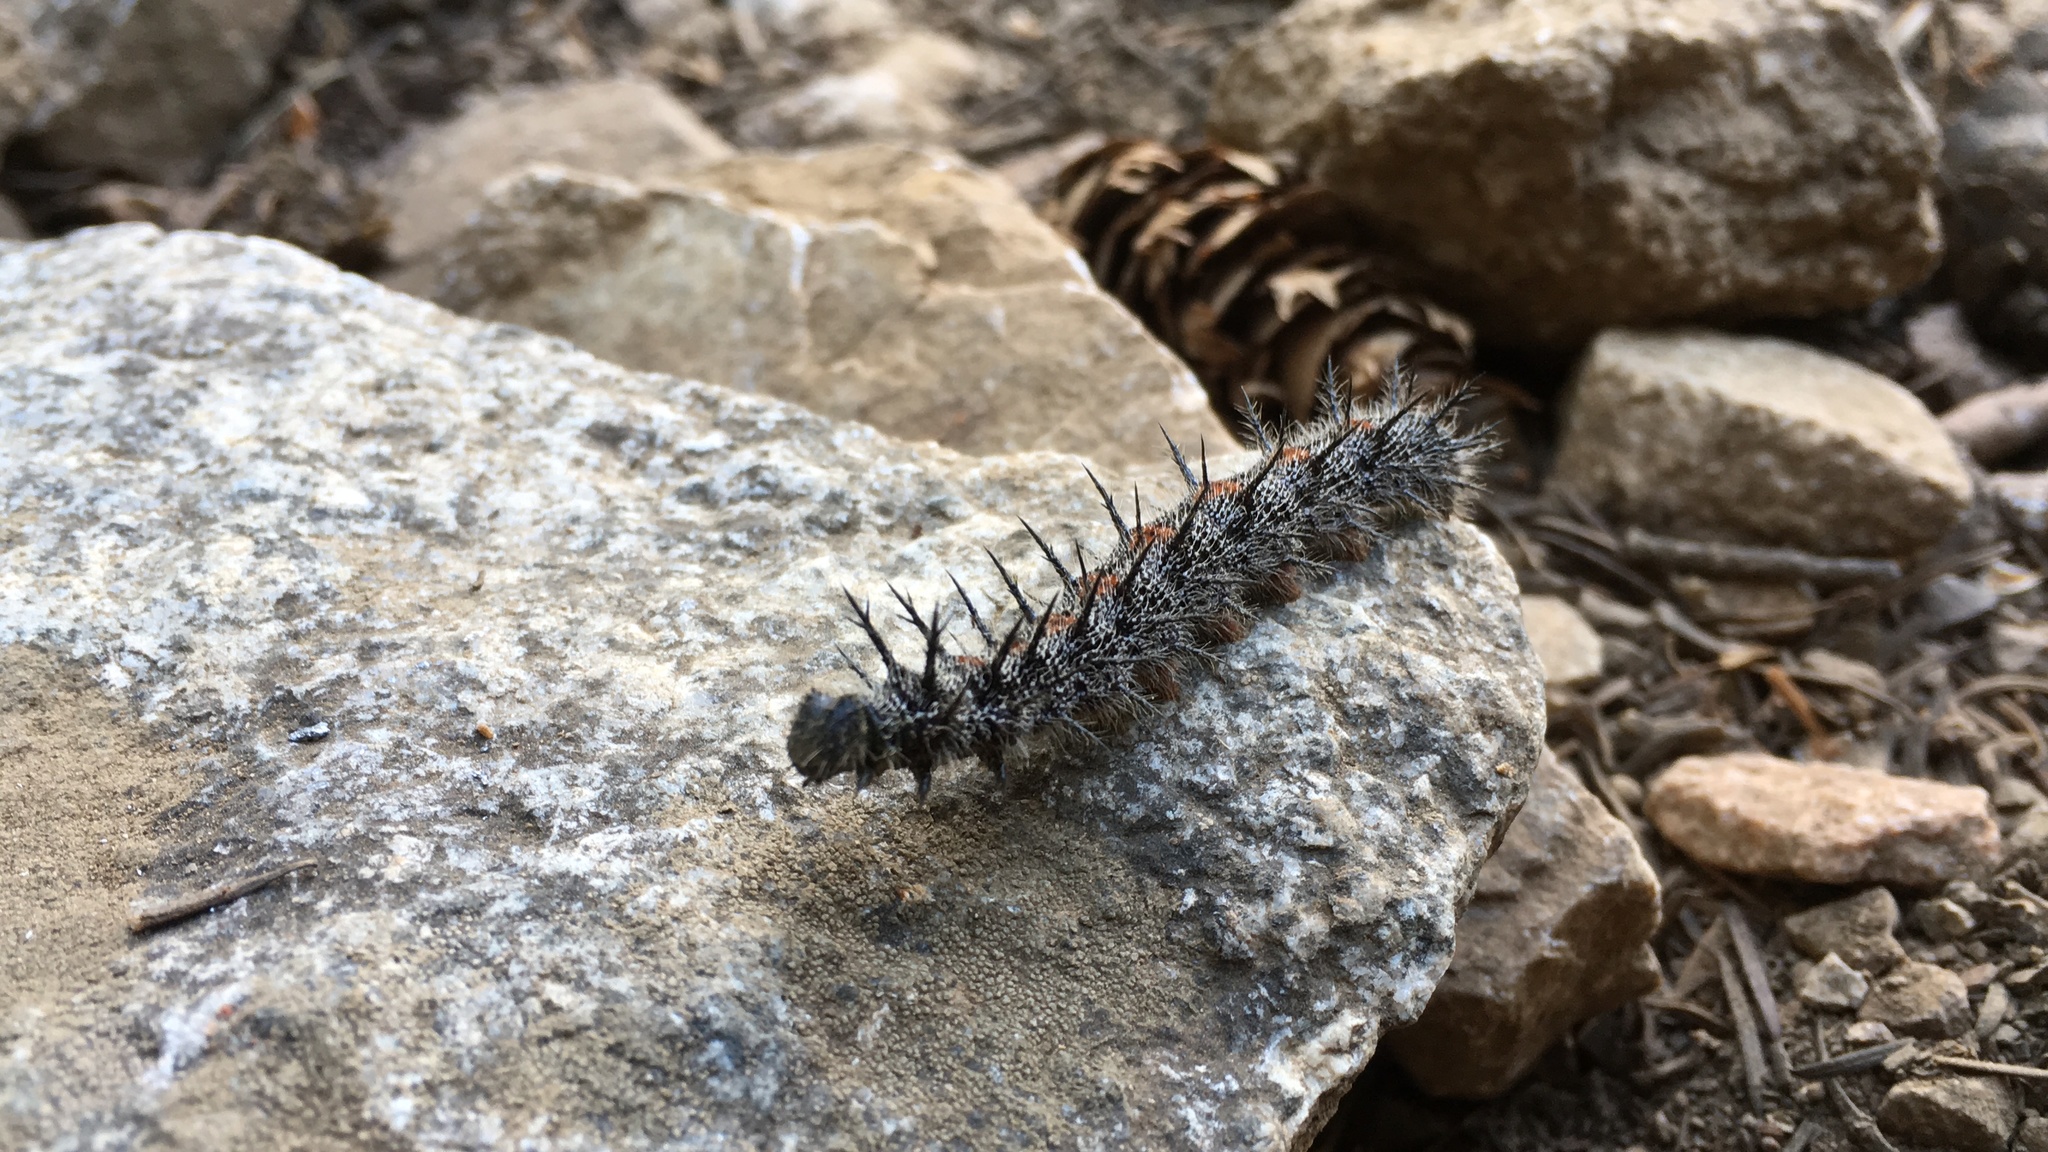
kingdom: Animalia
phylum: Arthropoda
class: Insecta
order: Lepidoptera
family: Nymphalidae
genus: Nymphalis
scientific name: Nymphalis antiopa
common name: Camberwell beauty
